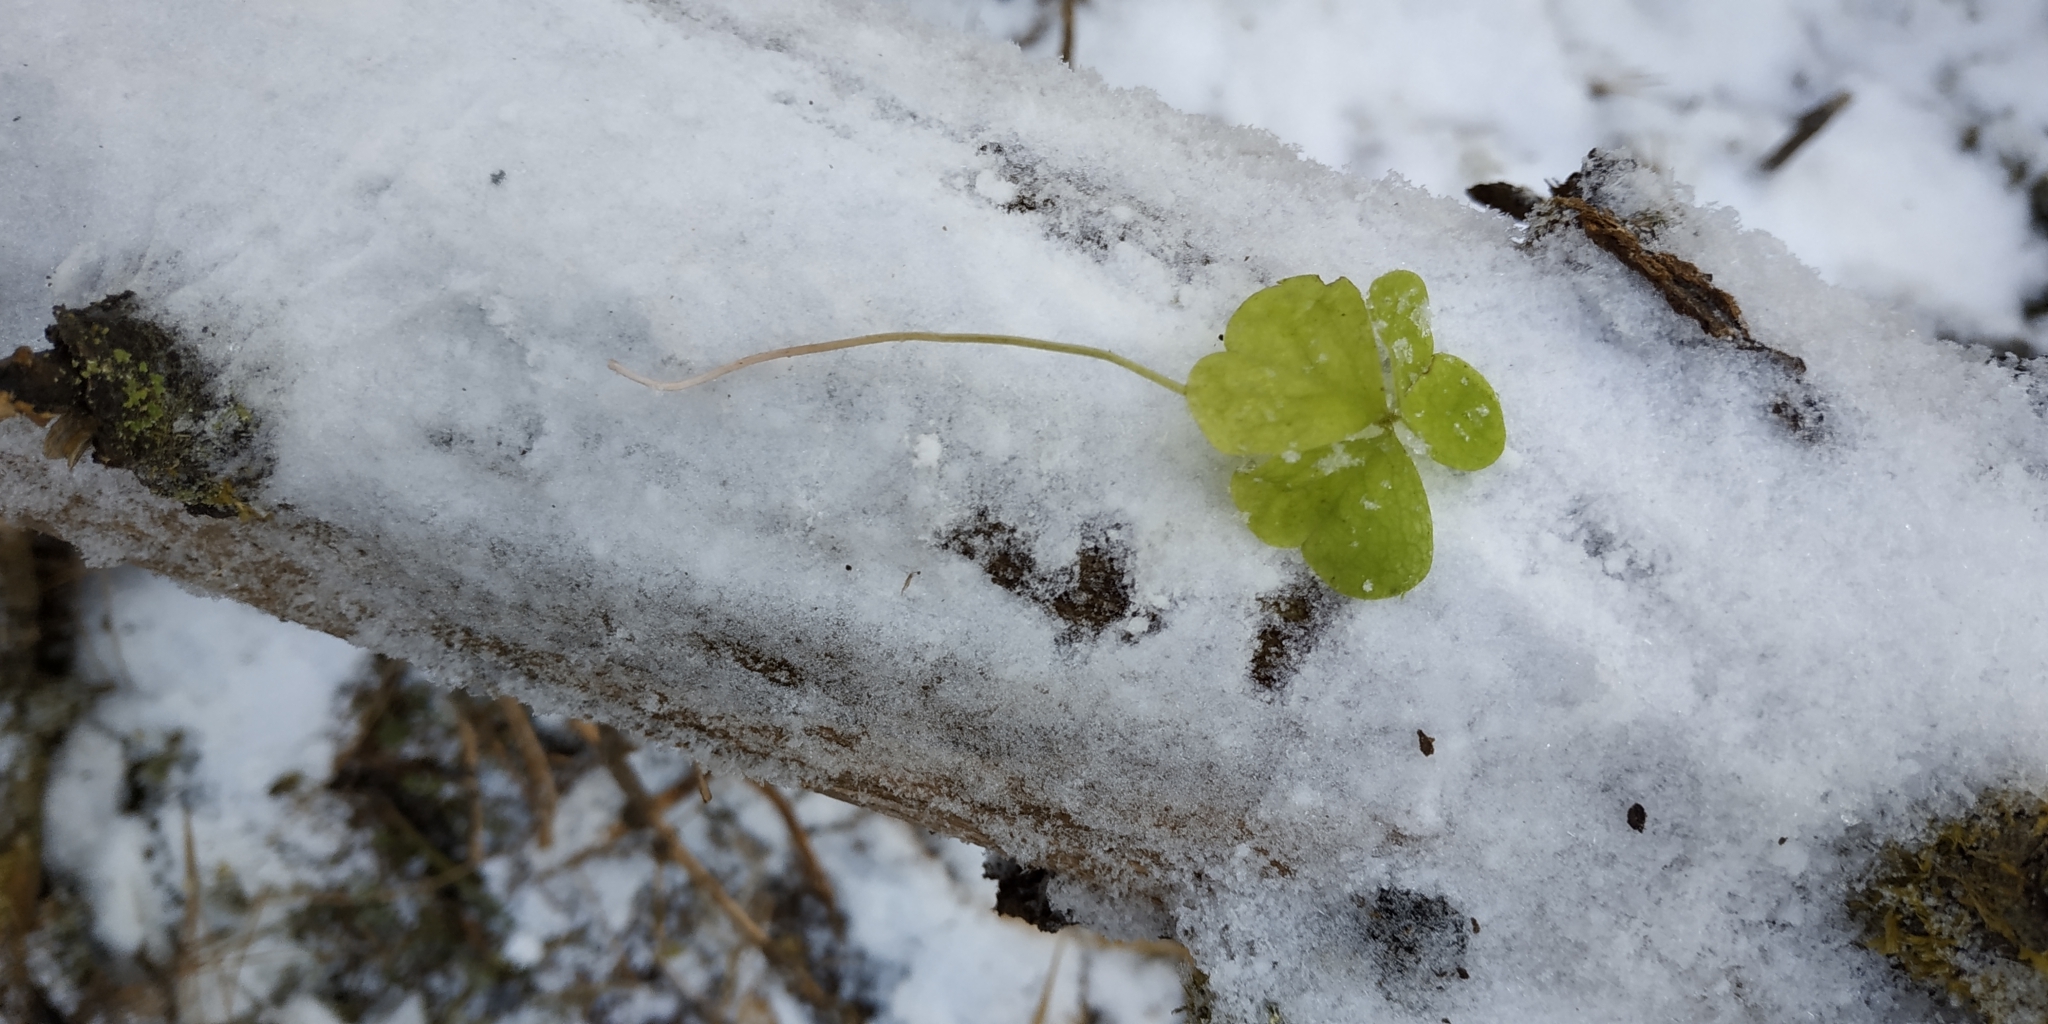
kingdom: Plantae
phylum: Tracheophyta
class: Magnoliopsida
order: Oxalidales
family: Oxalidaceae
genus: Oxalis
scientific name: Oxalis acetosella
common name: Wood-sorrel
